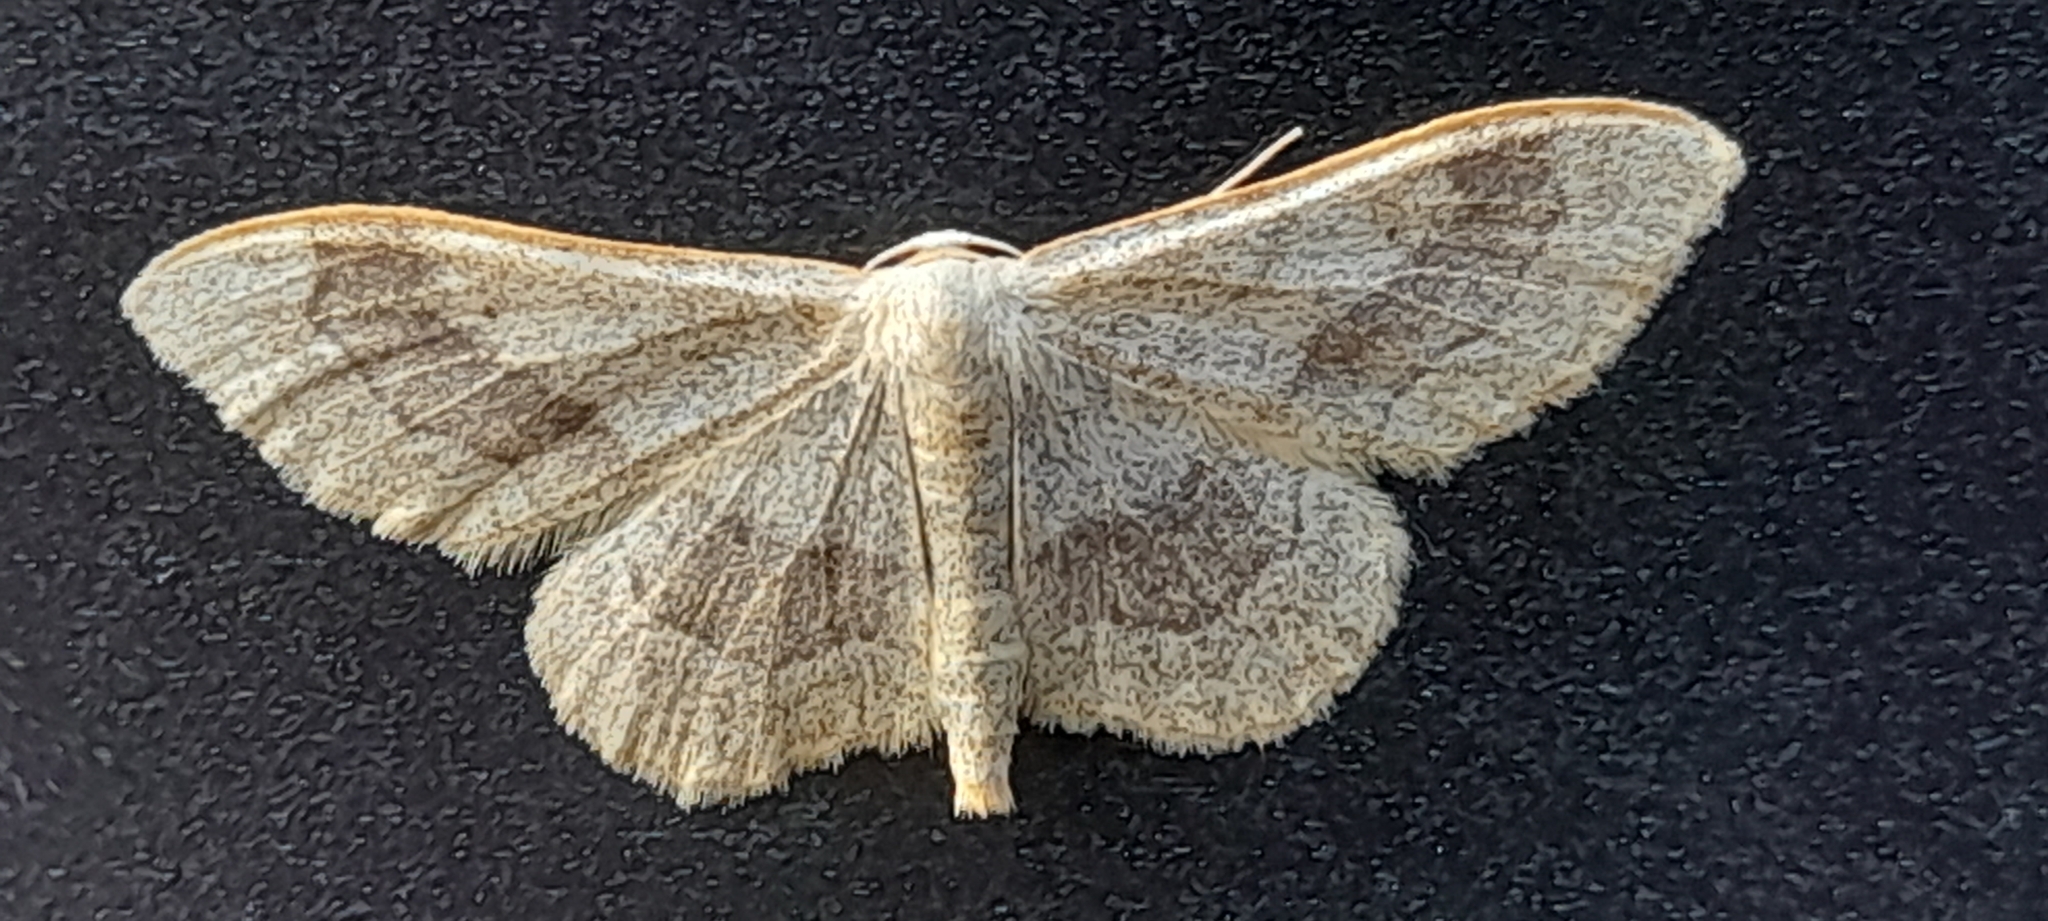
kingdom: Animalia
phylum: Arthropoda
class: Insecta
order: Lepidoptera
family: Geometridae
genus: Idaea
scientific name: Idaea aversata
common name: Riband wave
